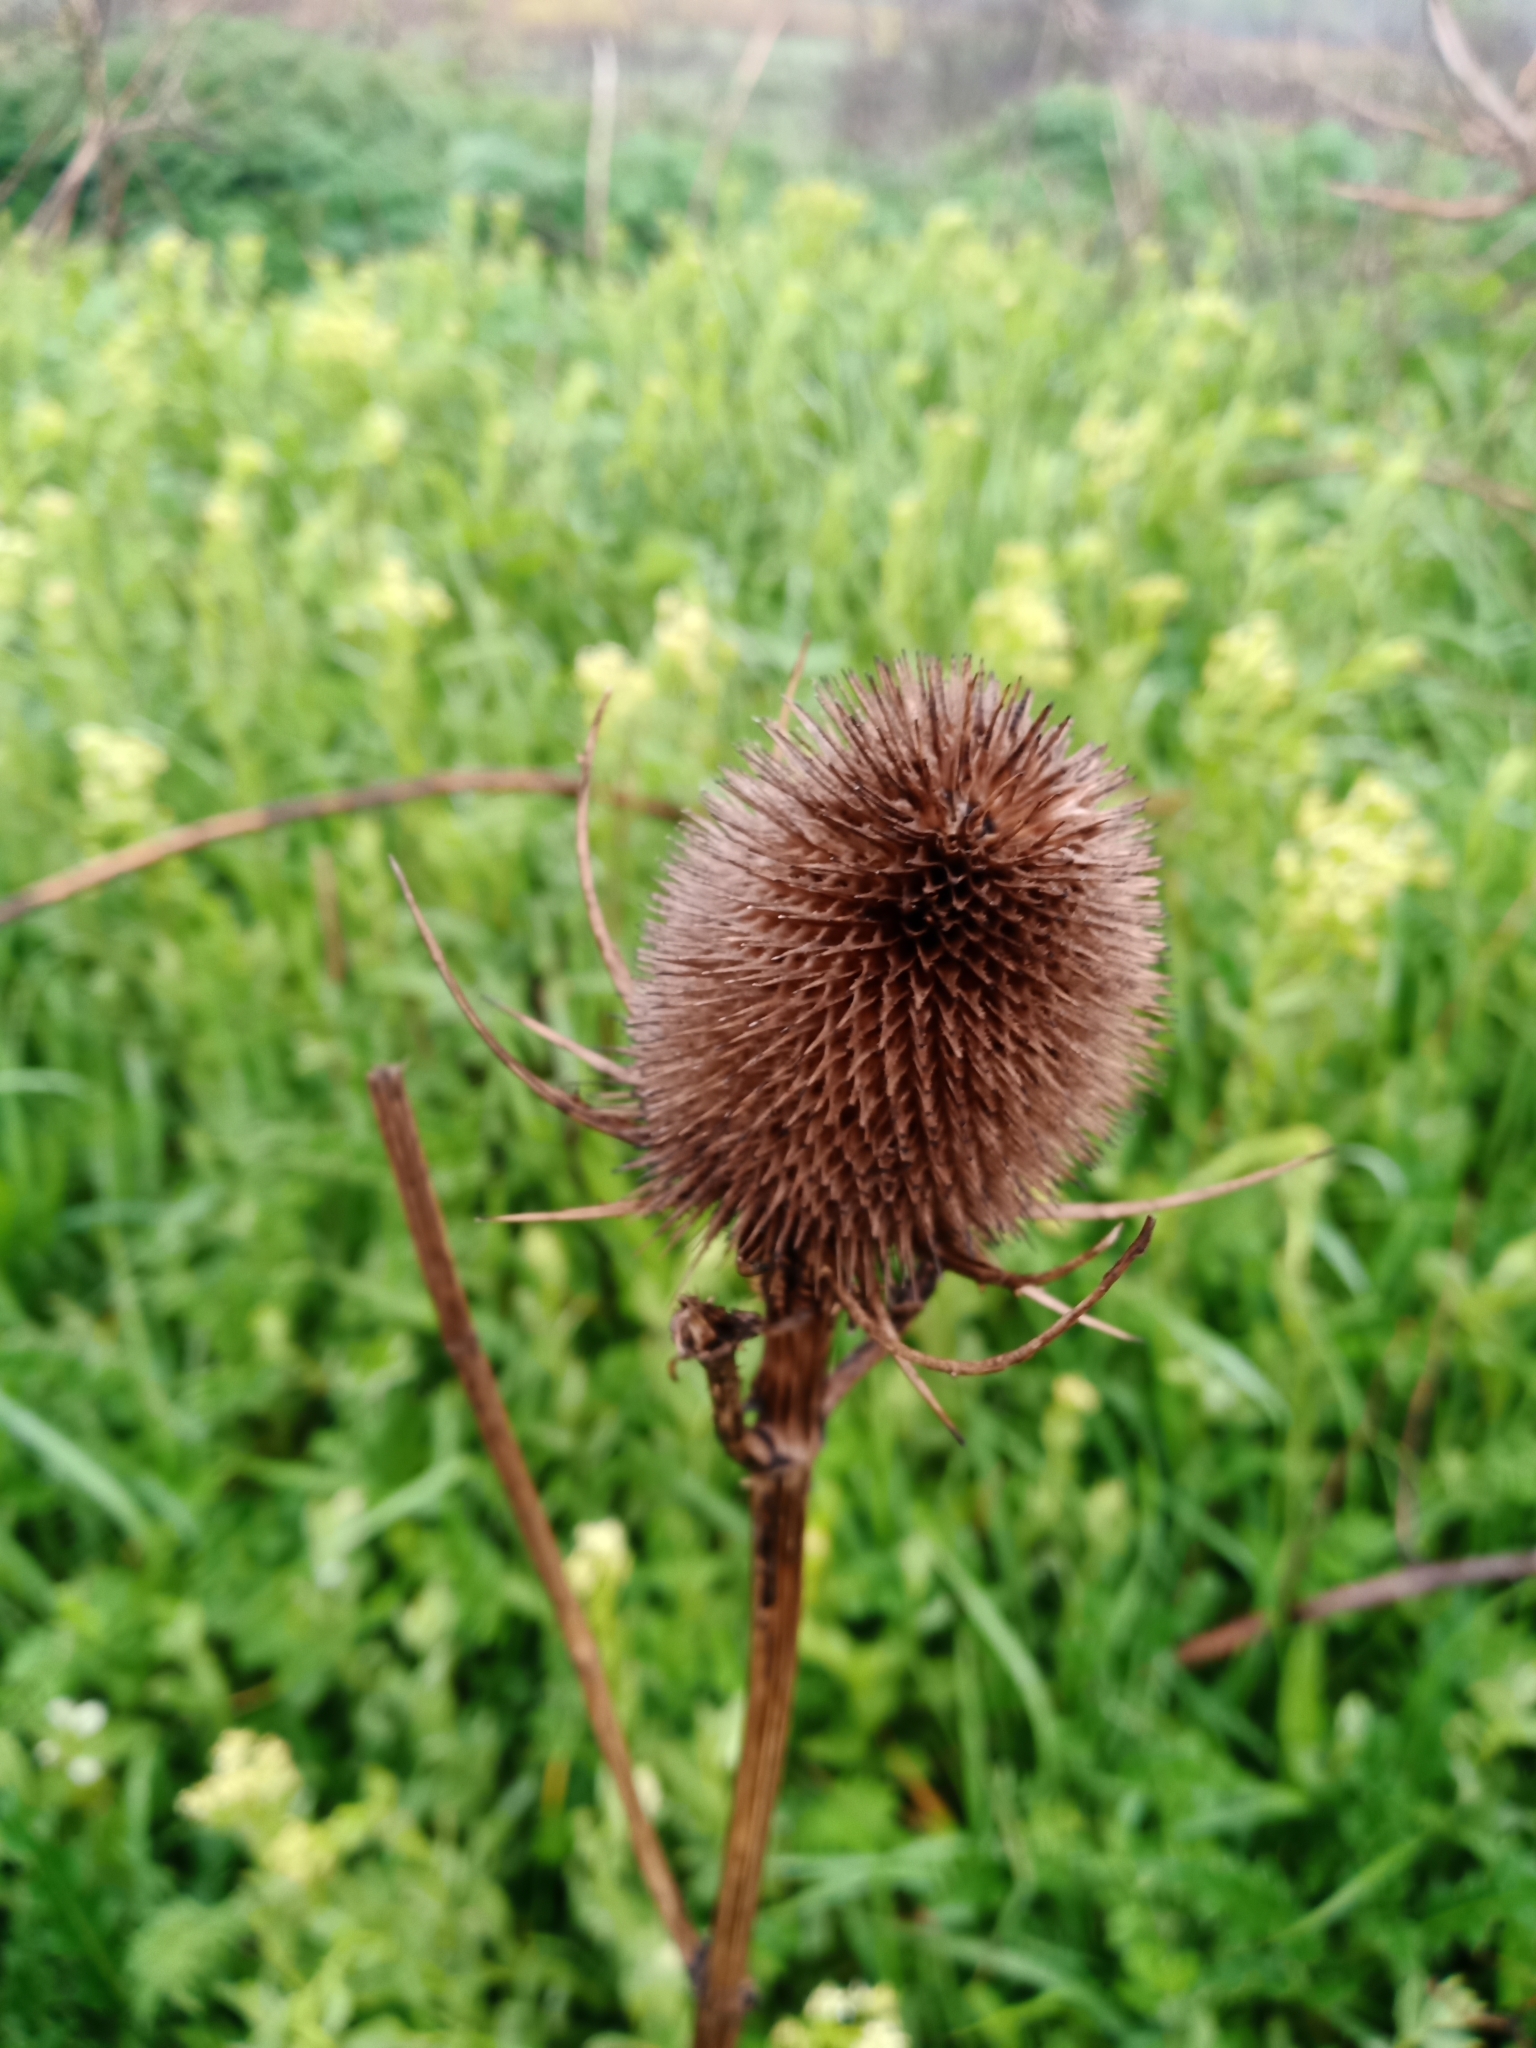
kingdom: Plantae
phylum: Tracheophyta
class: Magnoliopsida
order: Dipsacales
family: Caprifoliaceae
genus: Dipsacus
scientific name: Dipsacus fullonum
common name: Teasel
